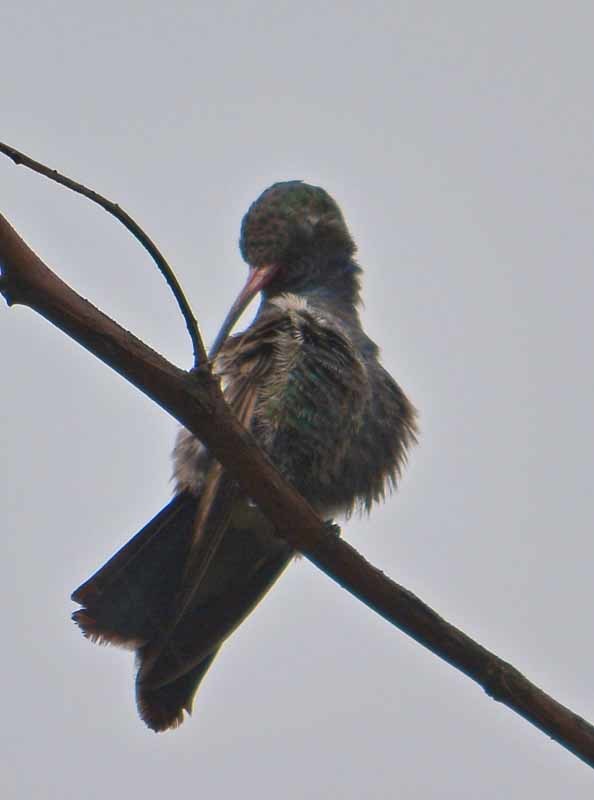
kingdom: Animalia
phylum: Chordata
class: Aves
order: Apodiformes
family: Trochilidae
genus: Cynanthus
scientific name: Cynanthus latirostris
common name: Broad-billed hummingbird
